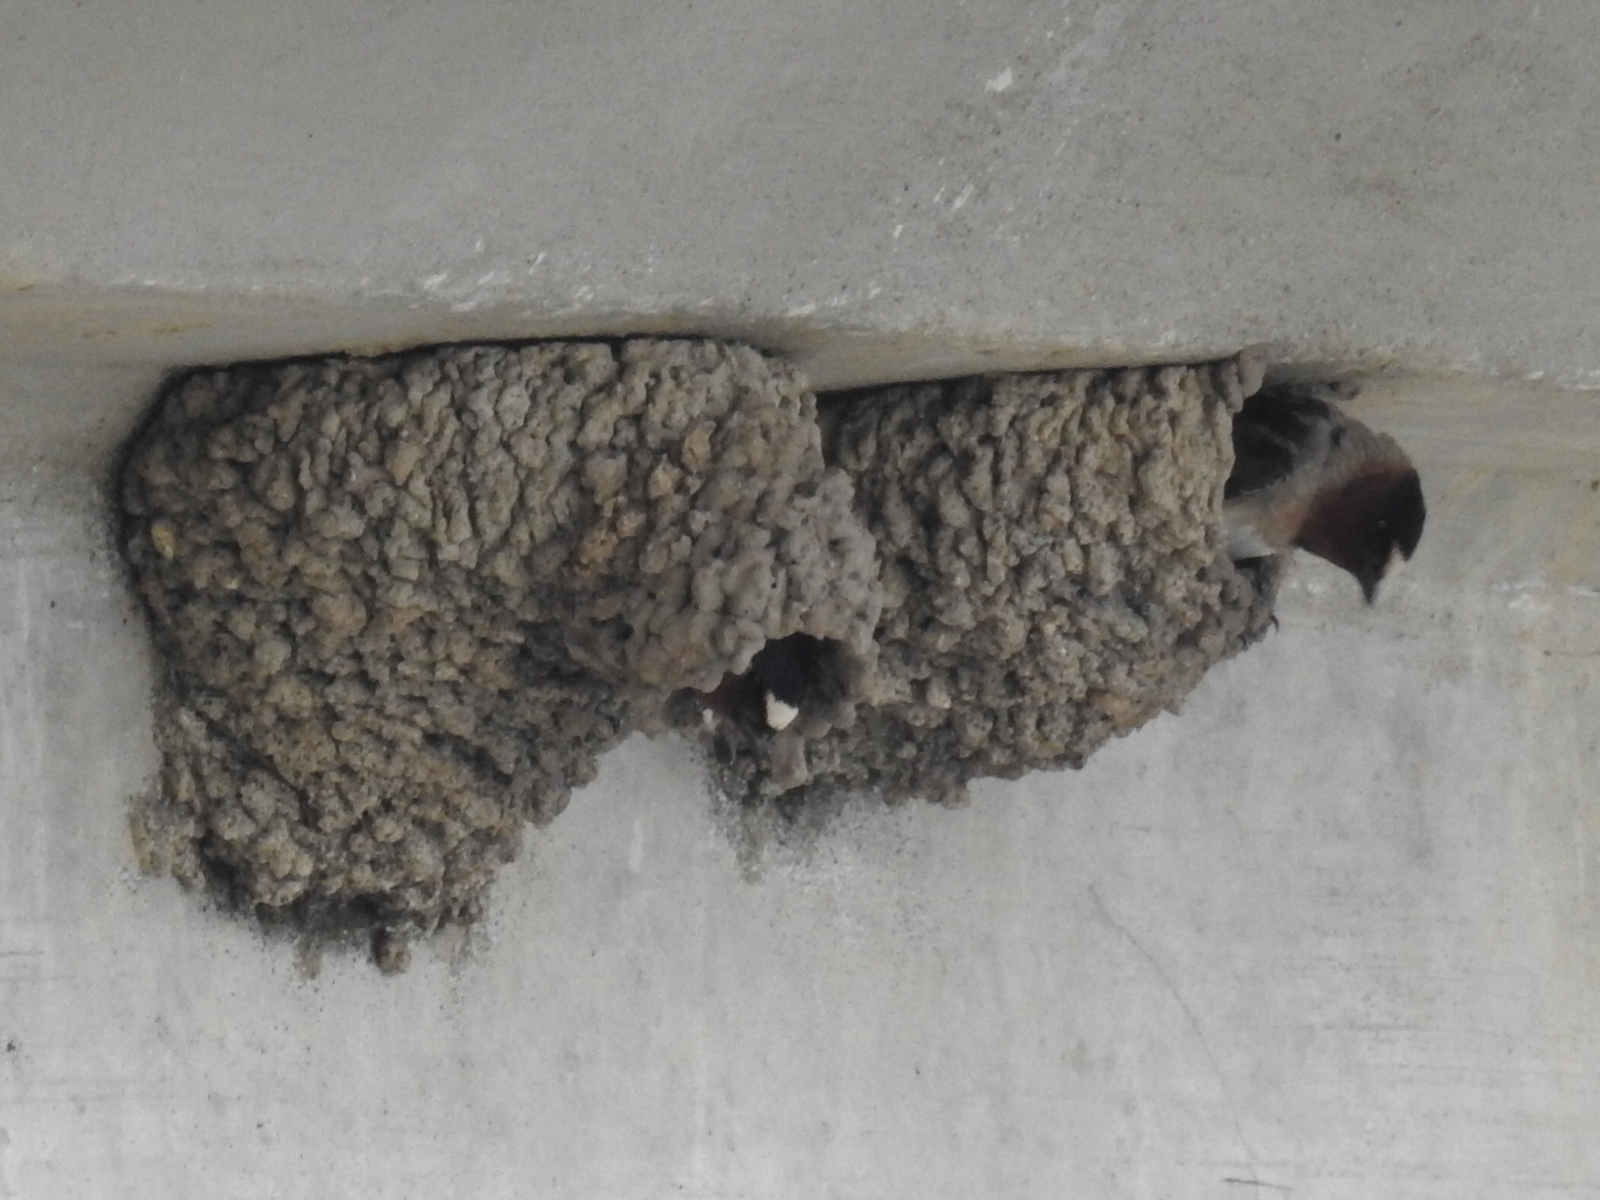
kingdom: Animalia
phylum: Chordata
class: Aves
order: Passeriformes
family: Hirundinidae
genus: Petrochelidon
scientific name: Petrochelidon pyrrhonota
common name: American cliff swallow
